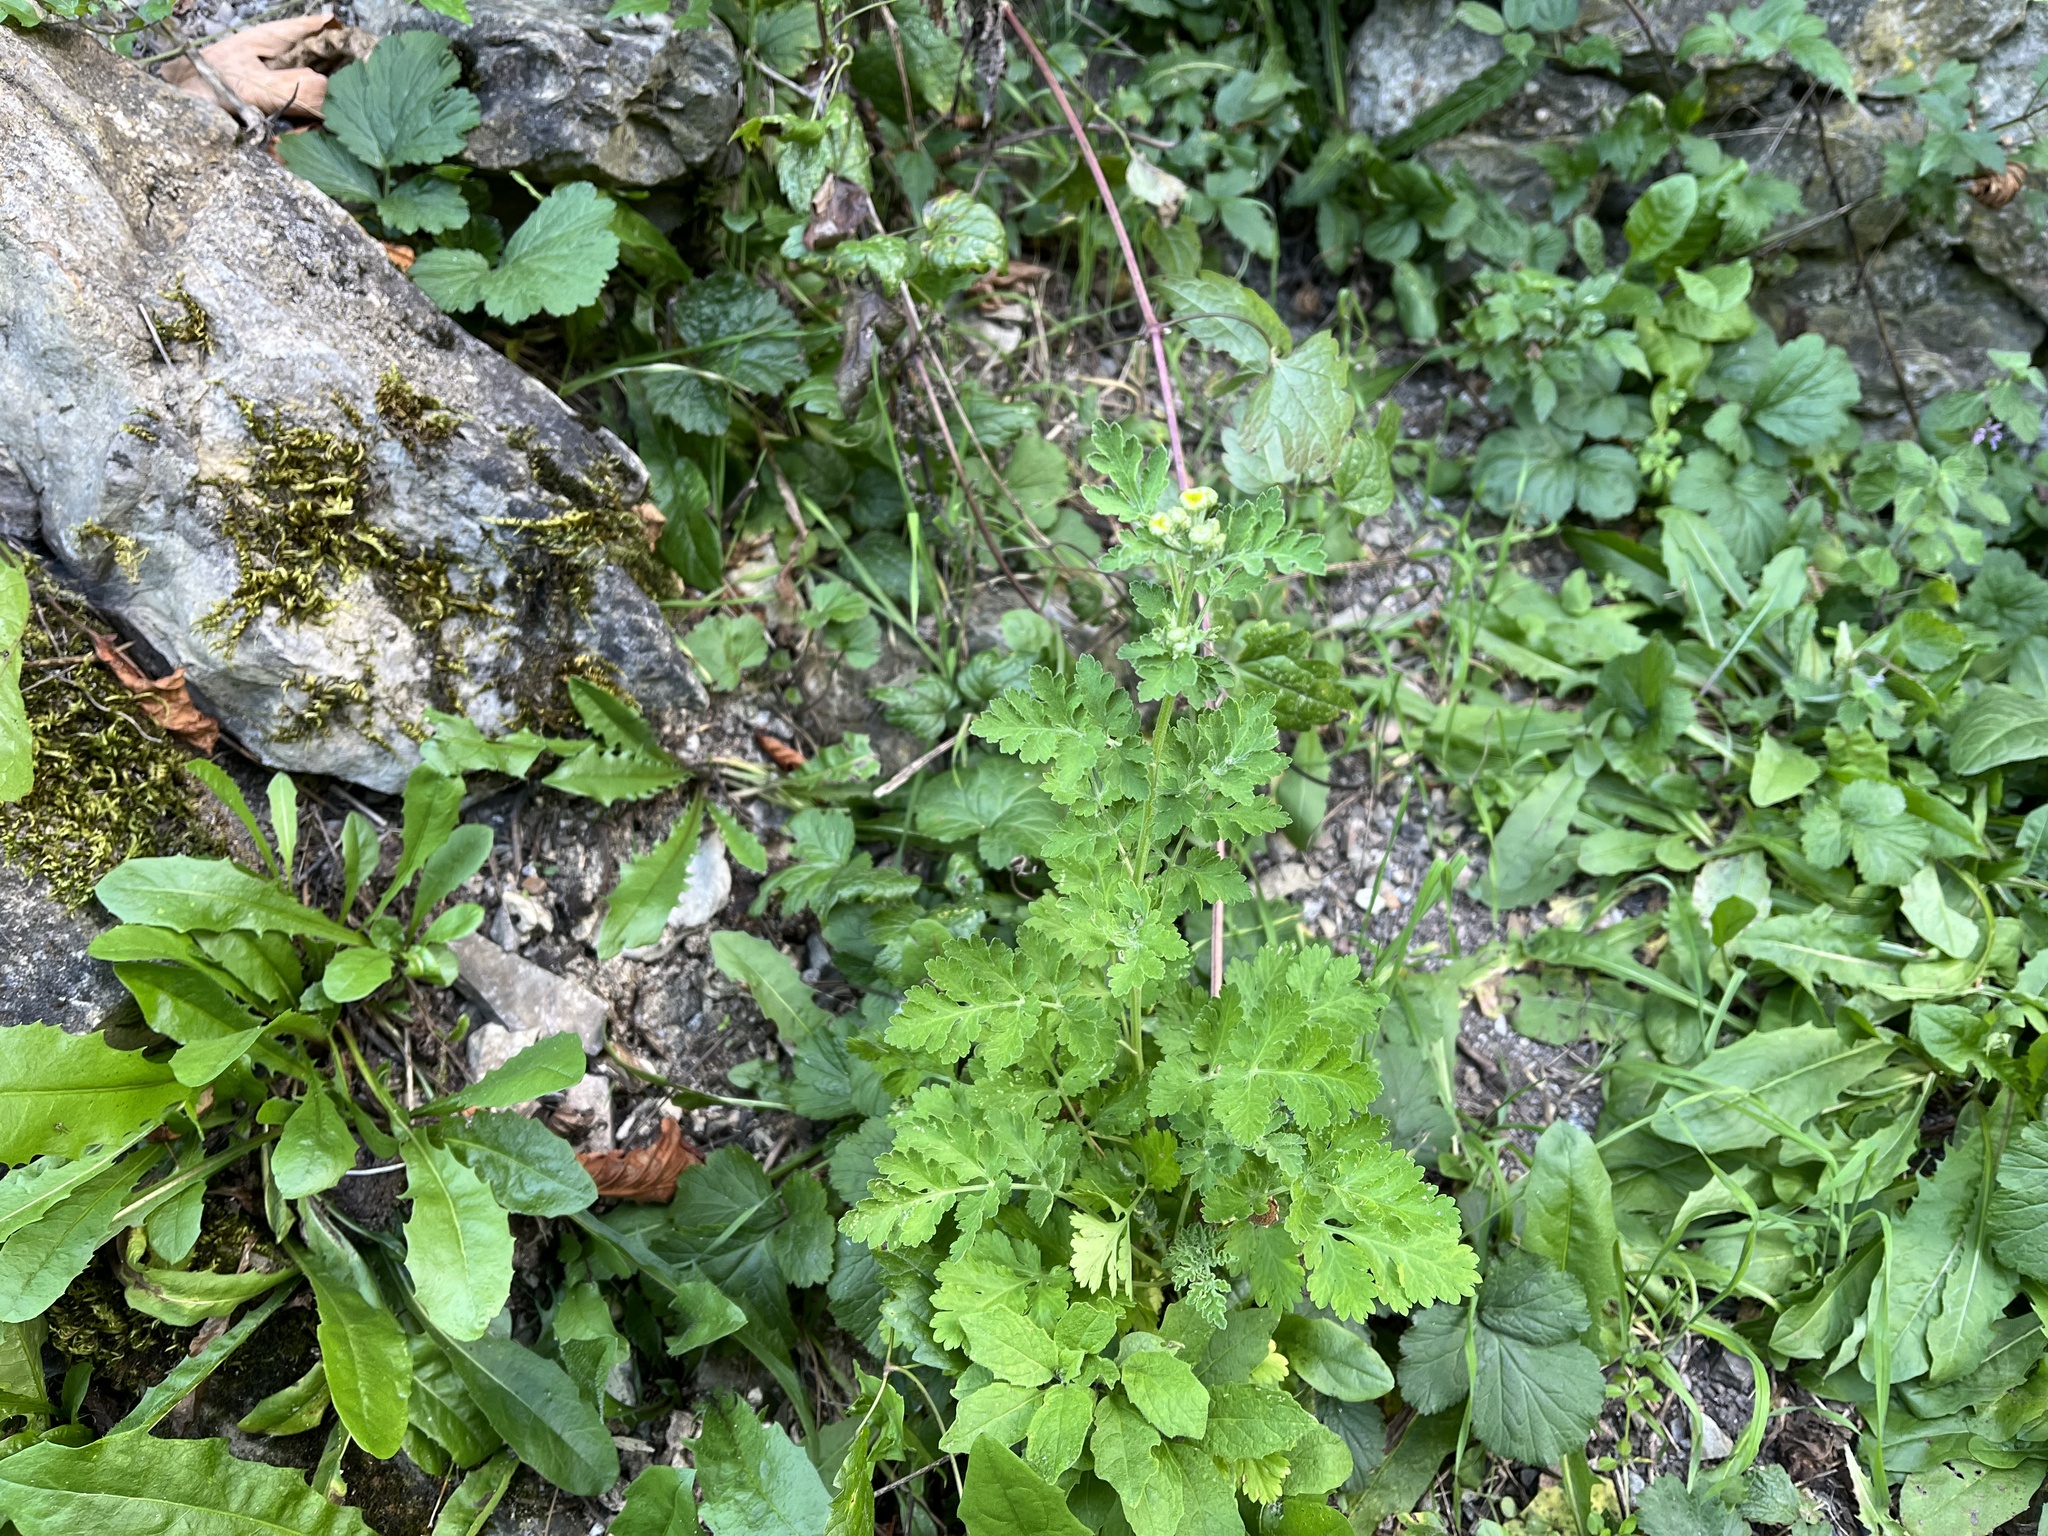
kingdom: Plantae
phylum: Tracheophyta
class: Magnoliopsida
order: Asterales
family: Asteraceae
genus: Tanacetum
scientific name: Tanacetum parthenium
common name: Feverfew
